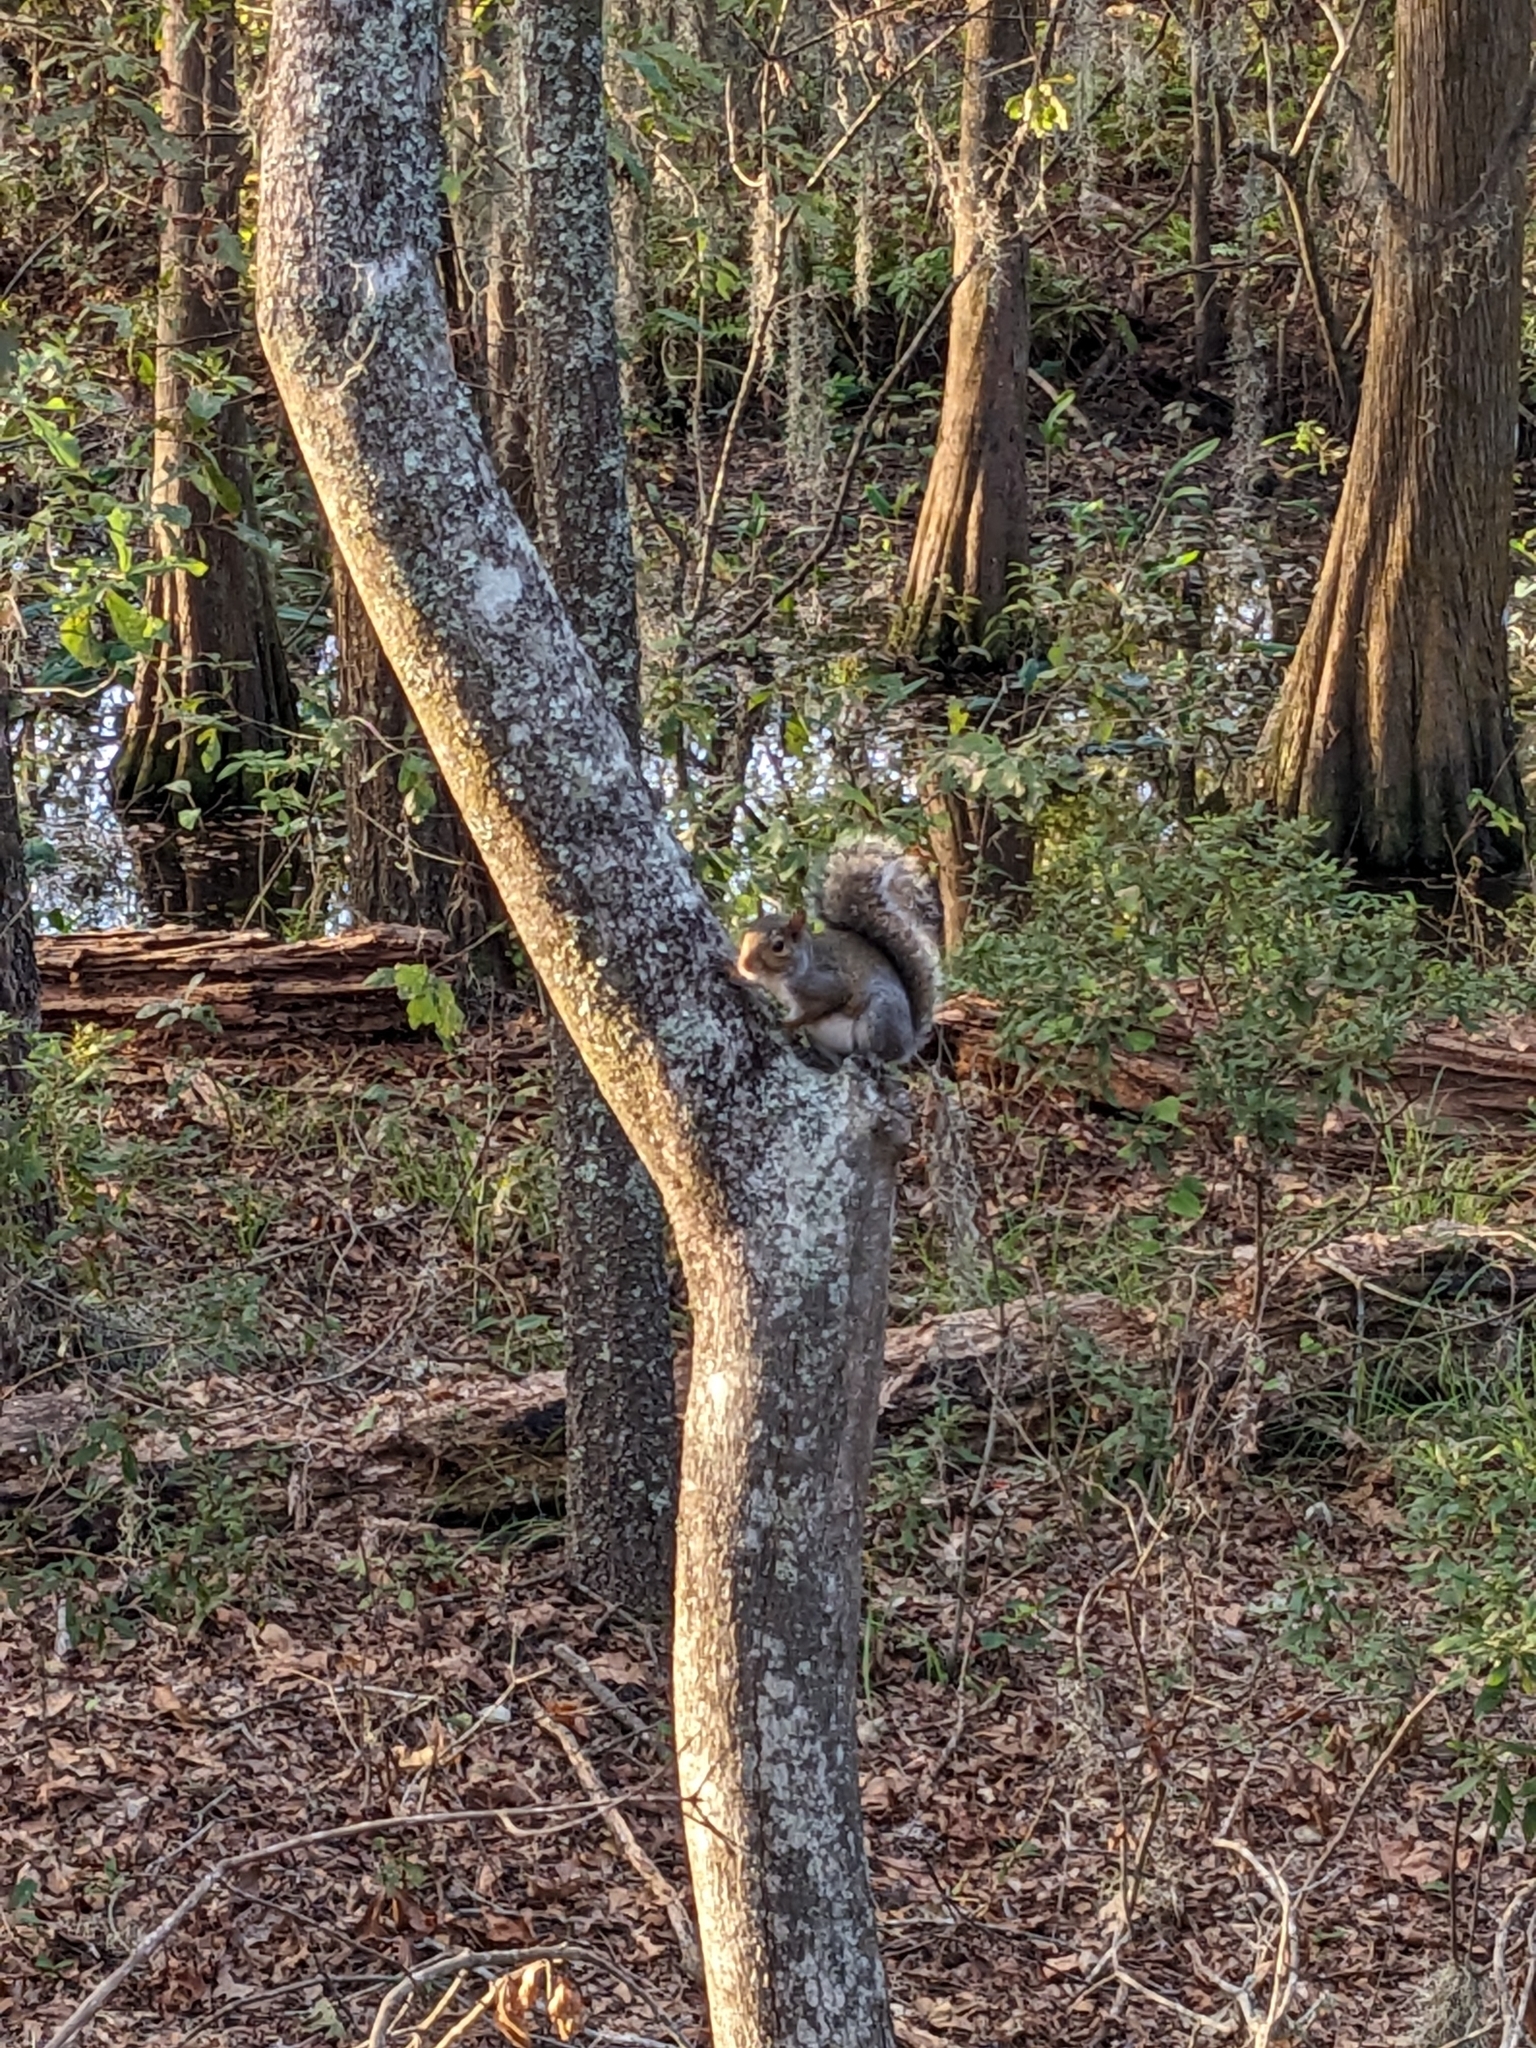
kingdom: Animalia
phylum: Chordata
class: Mammalia
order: Rodentia
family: Sciuridae
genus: Sciurus
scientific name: Sciurus carolinensis
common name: Eastern gray squirrel
